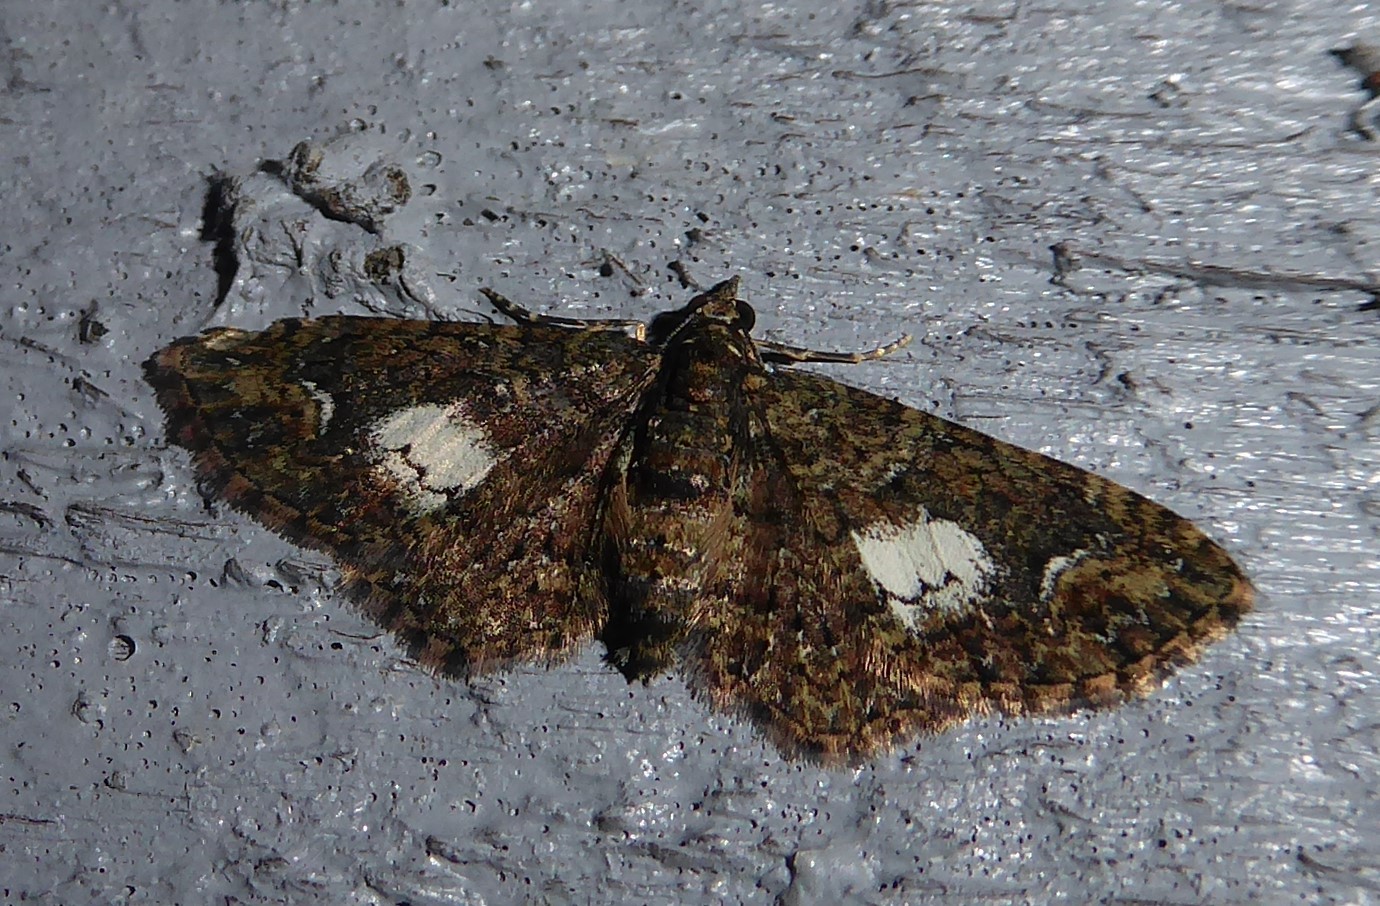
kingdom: Animalia
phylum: Arthropoda
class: Insecta
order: Lepidoptera
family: Geometridae
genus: Pasiphilodes
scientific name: Pasiphilodes testulata
